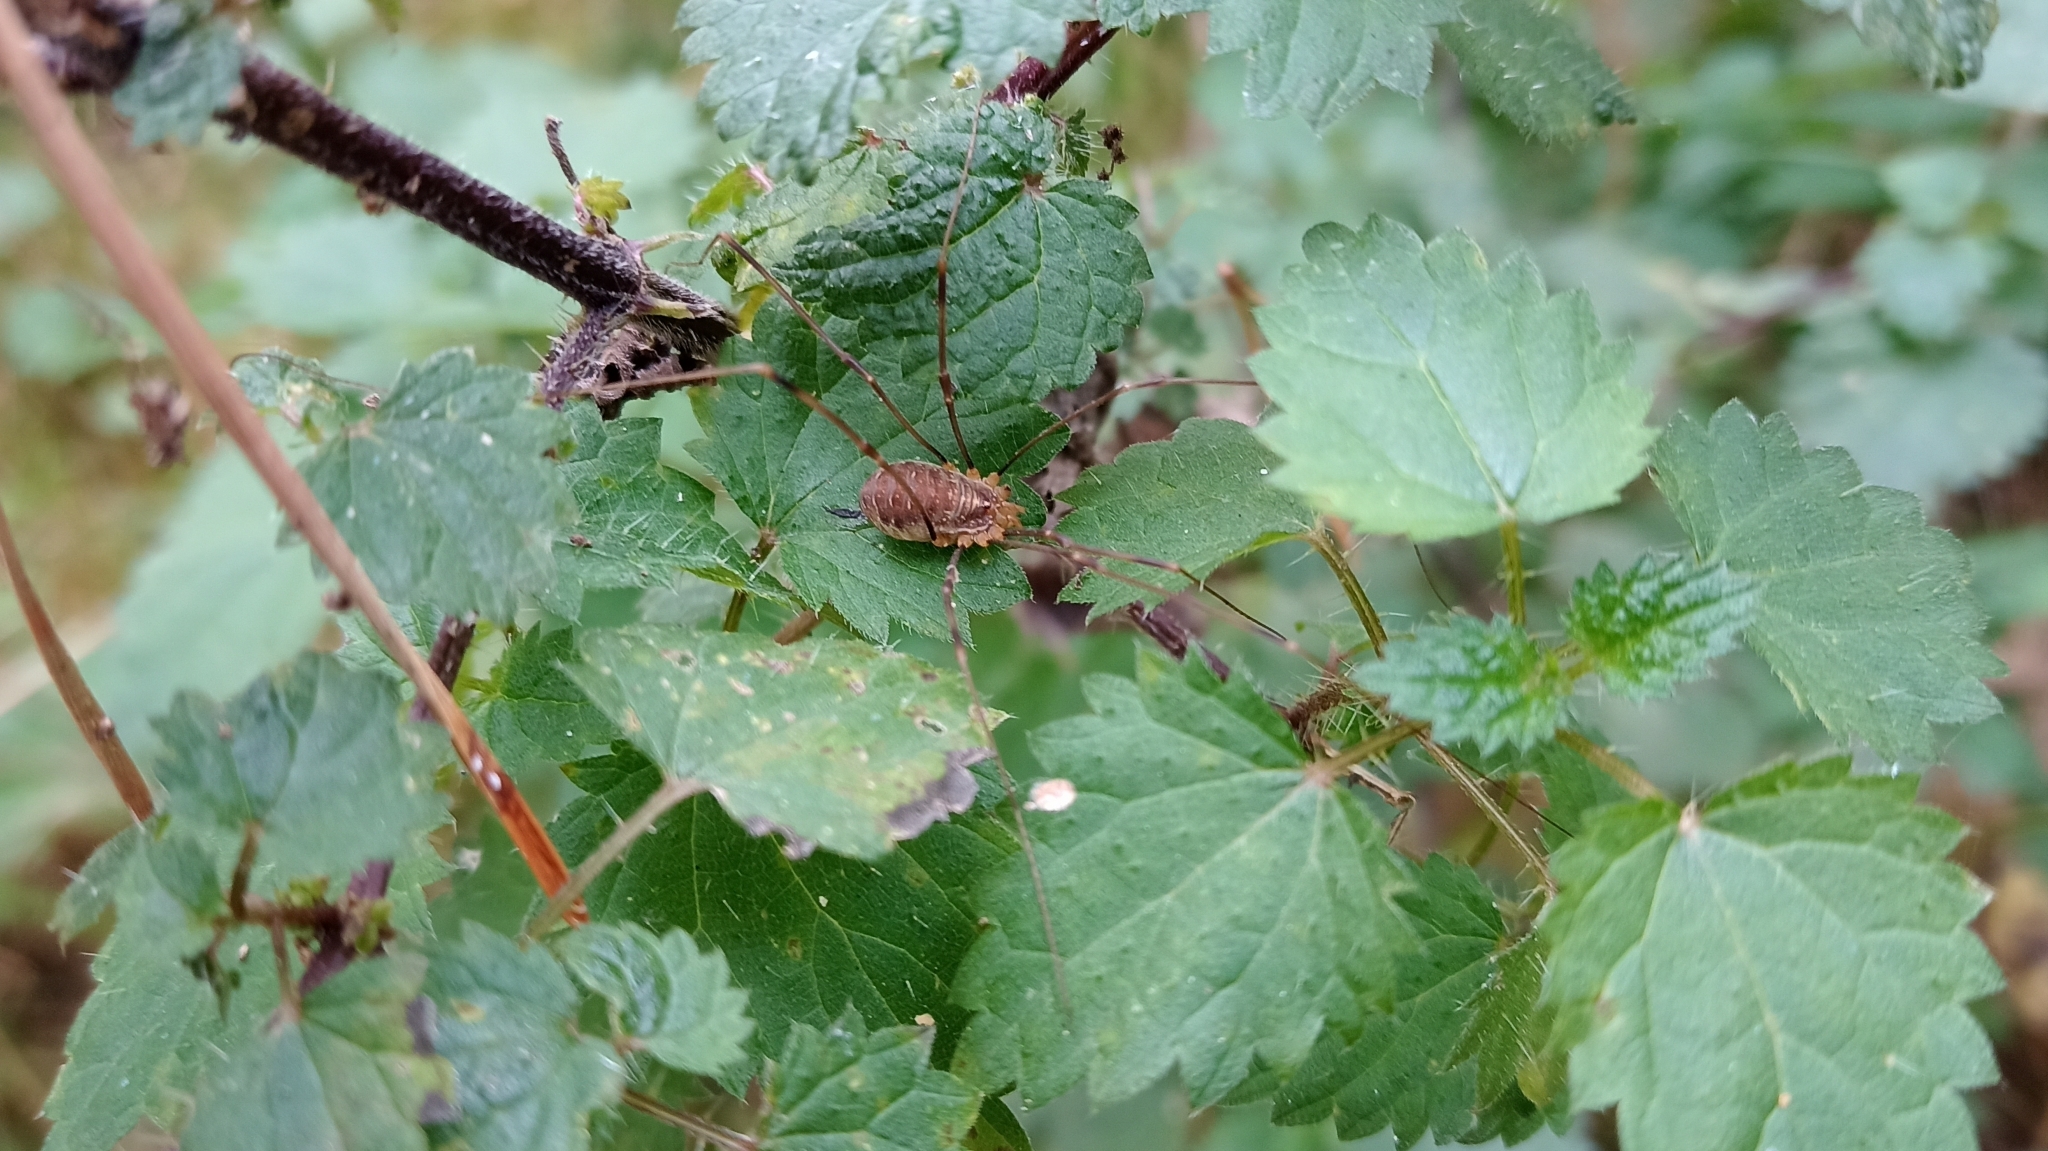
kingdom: Animalia
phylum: Arthropoda
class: Arachnida
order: Opiliones
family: Phalangiidae
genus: Opilio
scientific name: Opilio canestrinii
